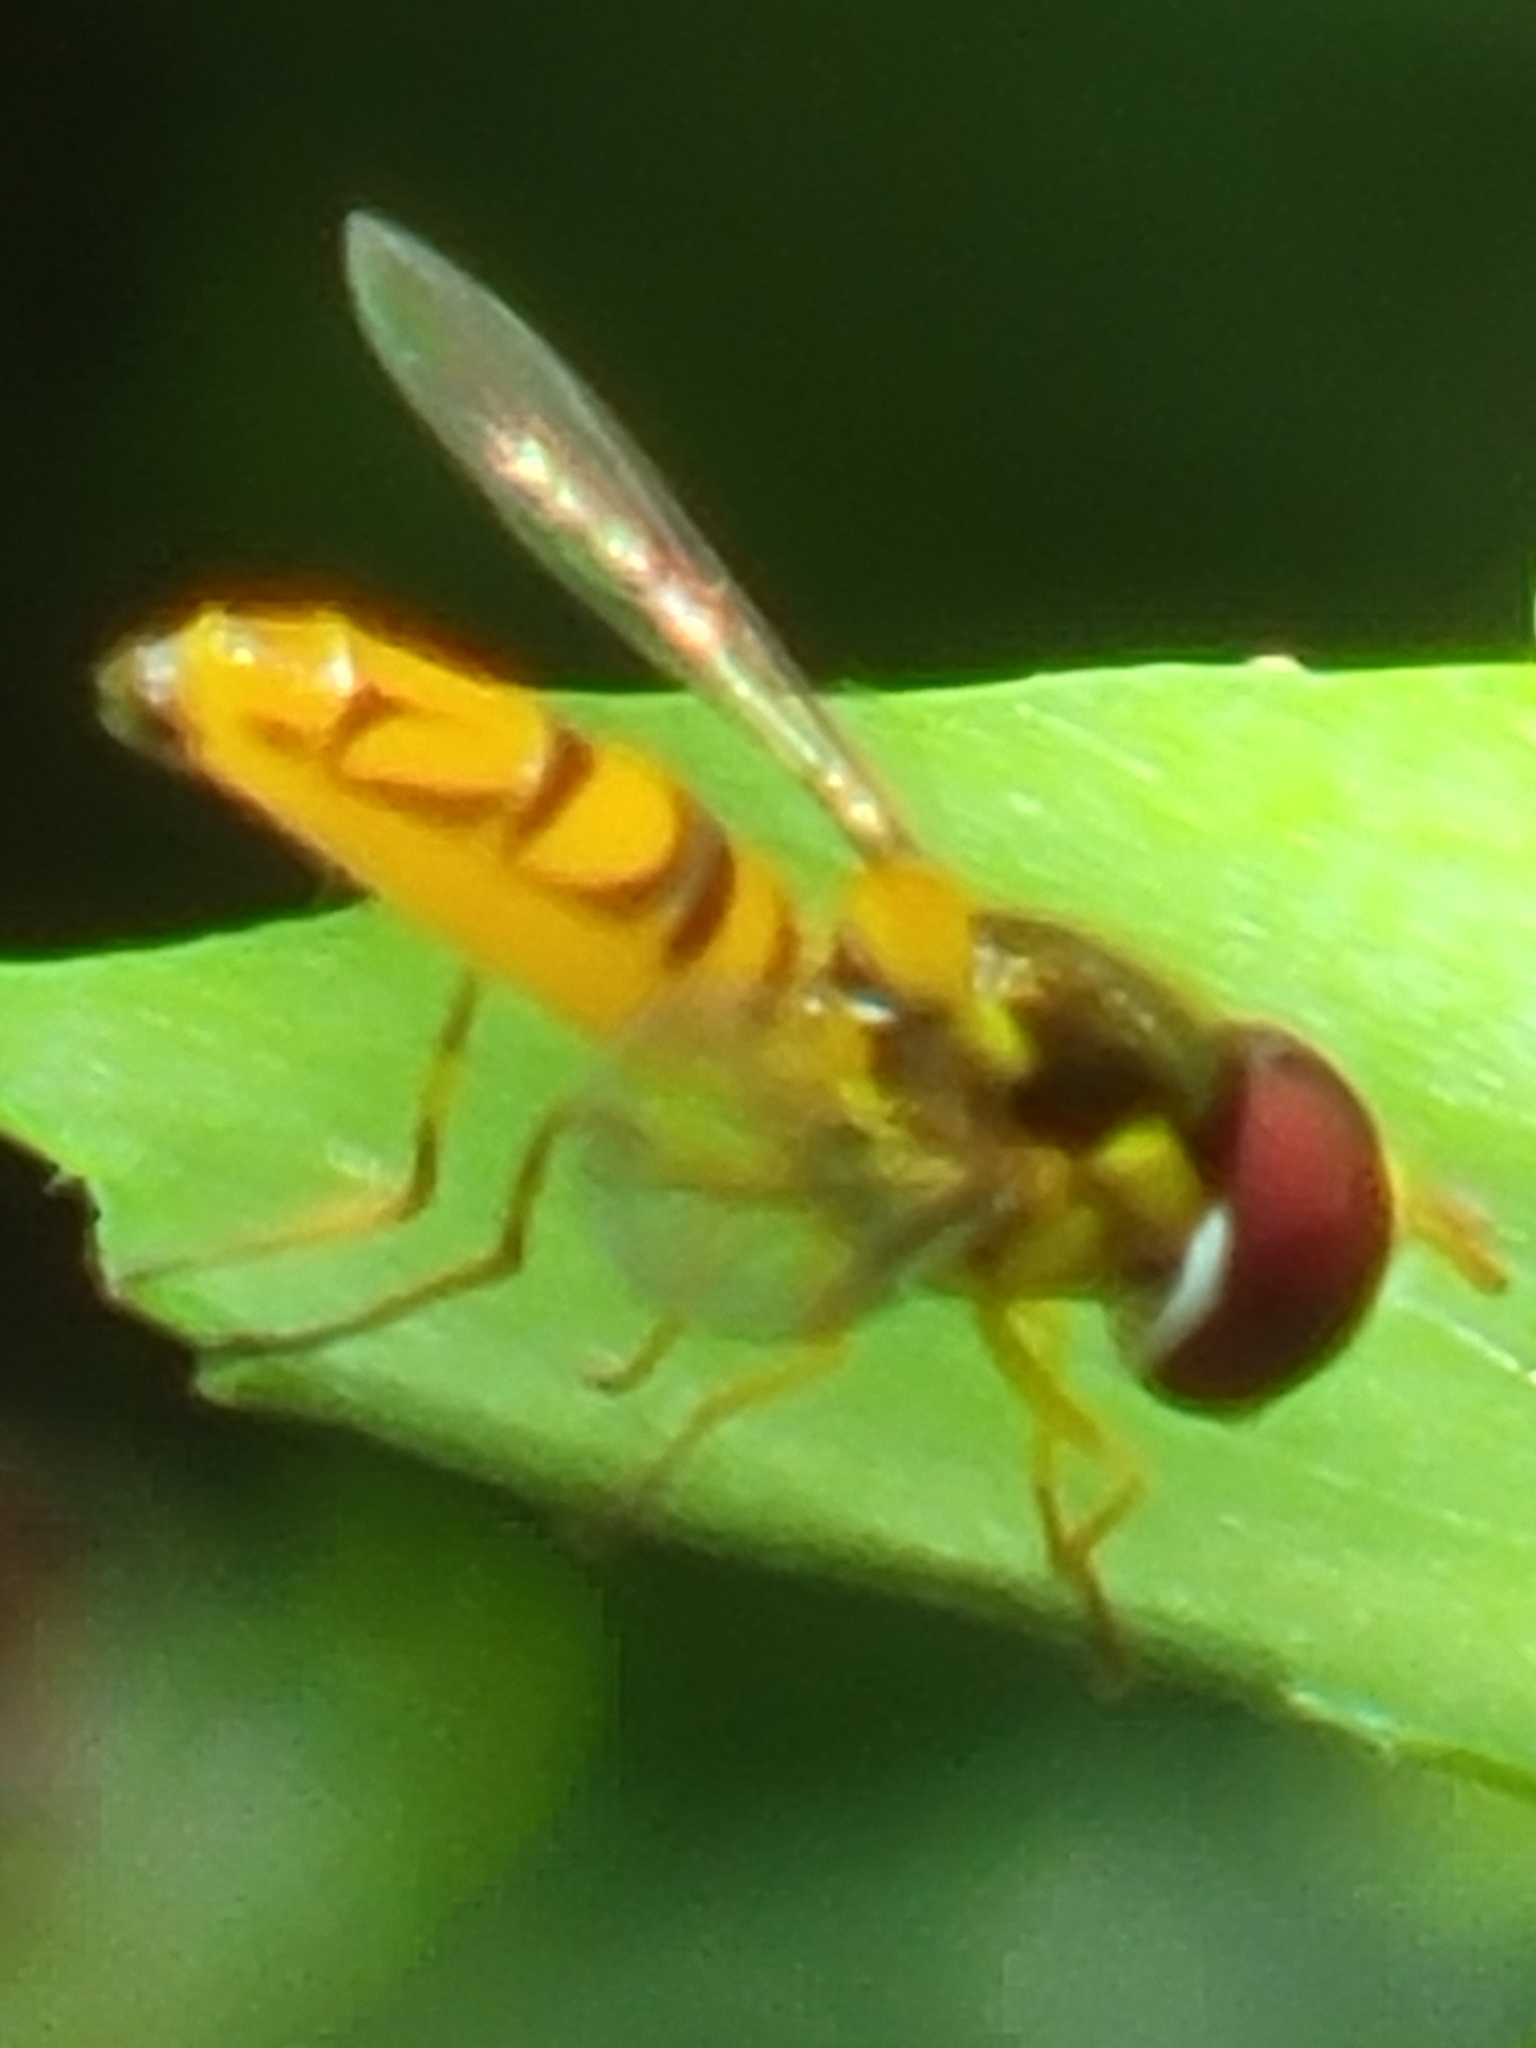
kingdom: Animalia
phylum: Arthropoda
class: Insecta
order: Diptera
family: Syrphidae
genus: Allograpta
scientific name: Allograpta obliqua
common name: Common oblique syrphid
